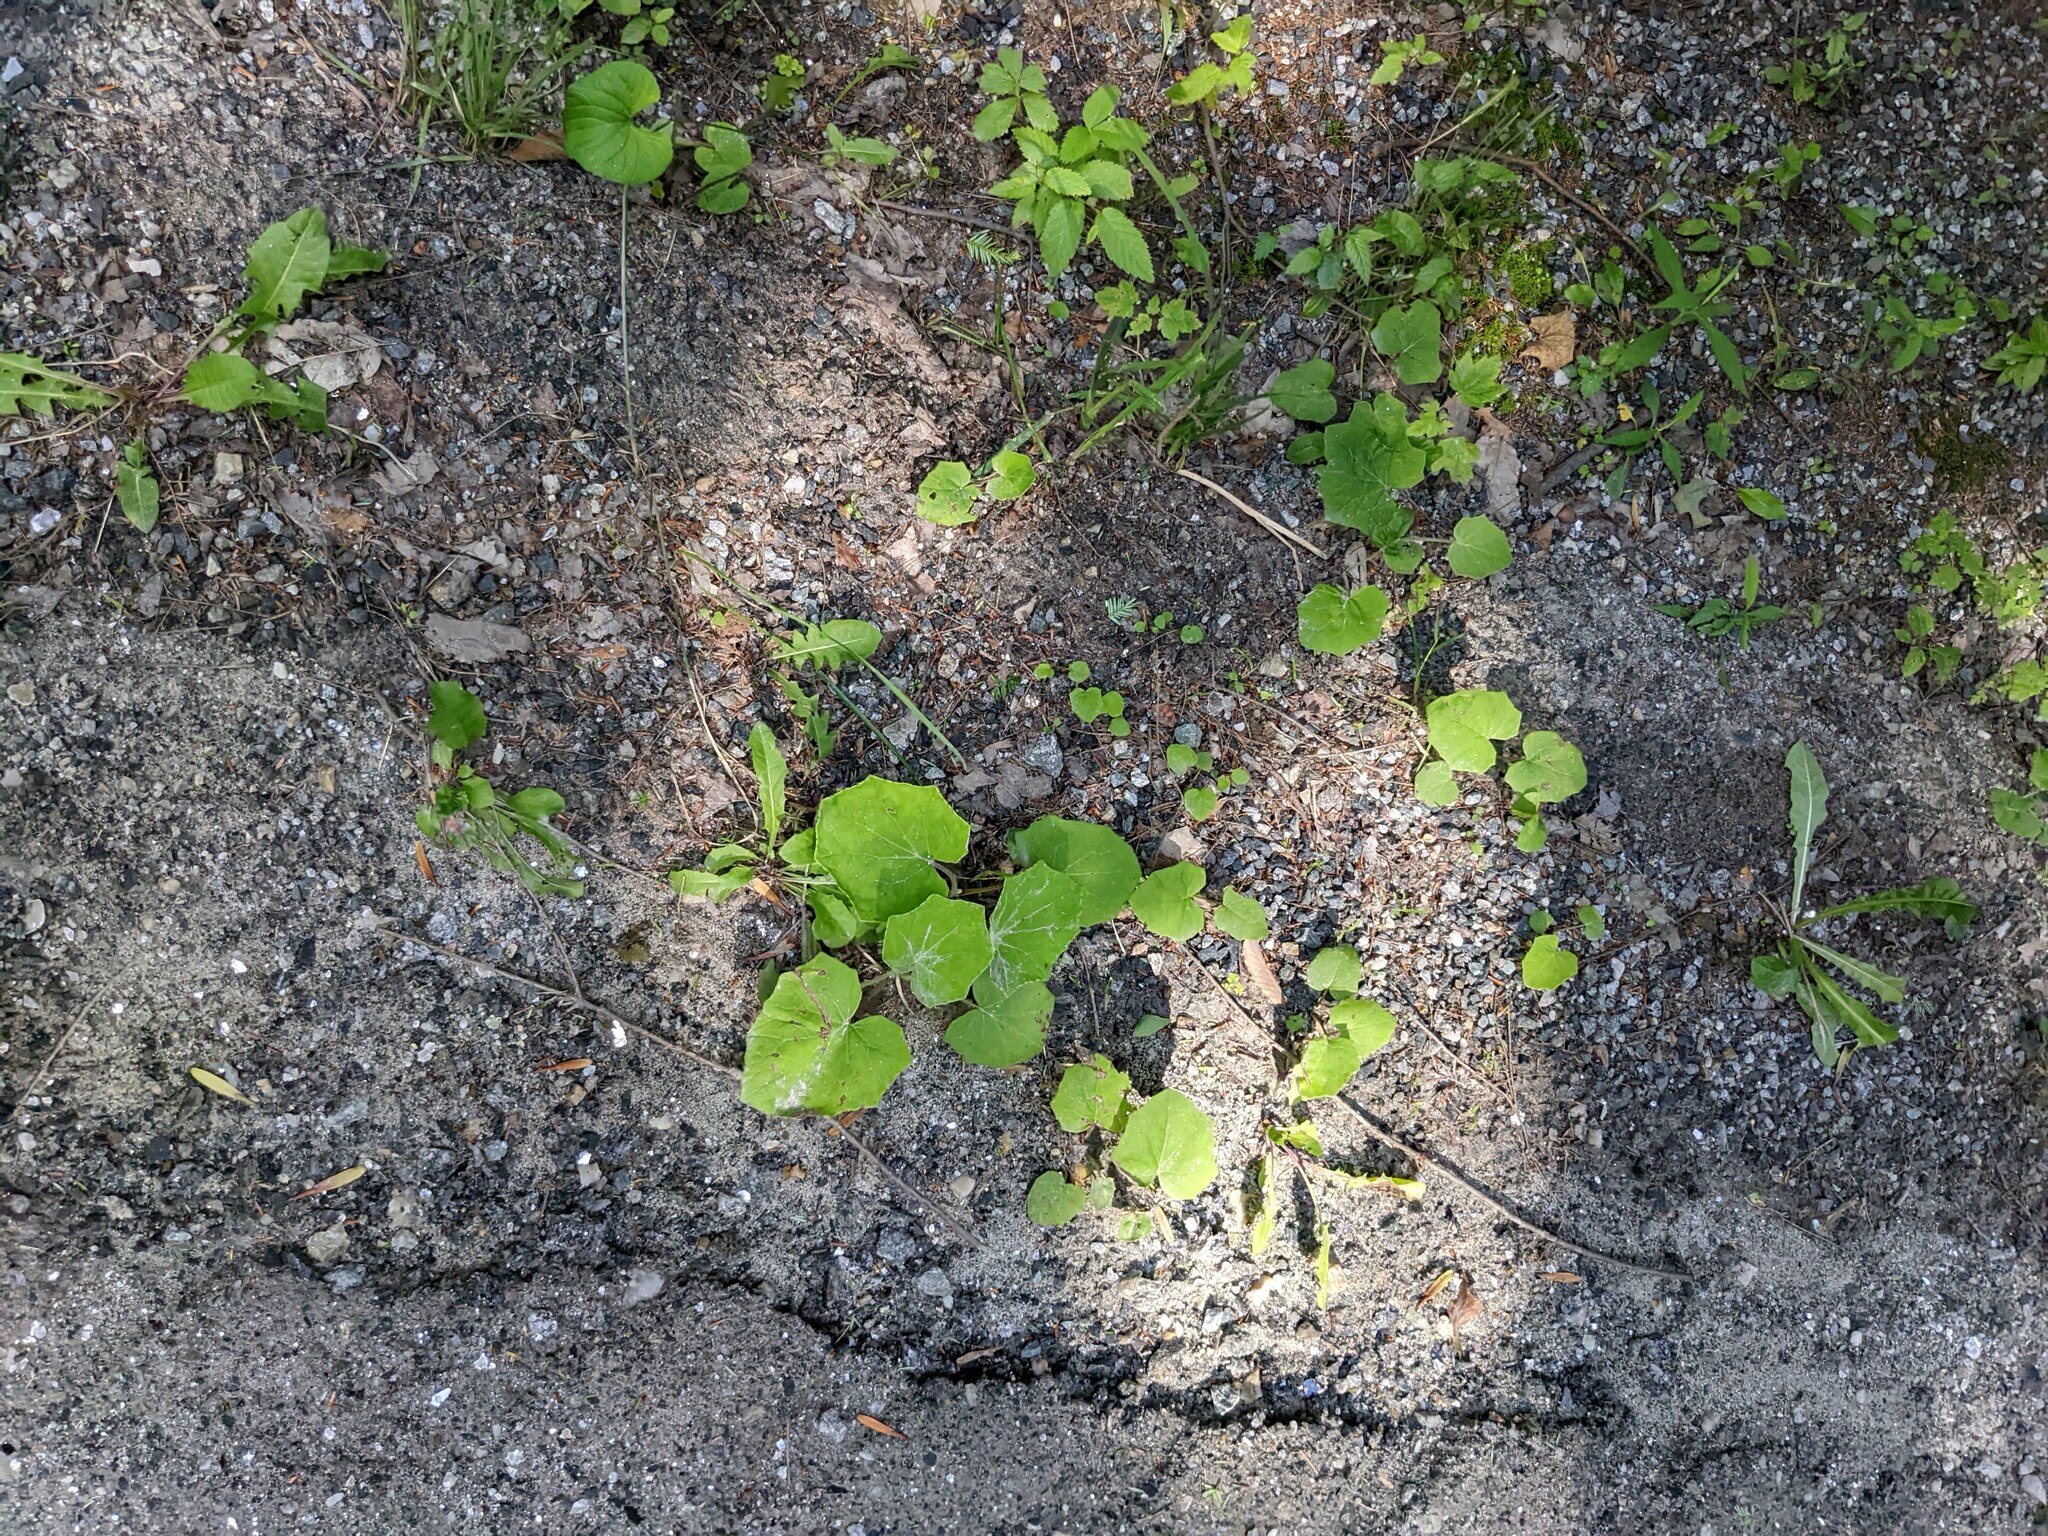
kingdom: Plantae
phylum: Tracheophyta
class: Magnoliopsida
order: Asterales
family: Asteraceae
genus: Tussilago
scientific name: Tussilago farfara
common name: Coltsfoot
